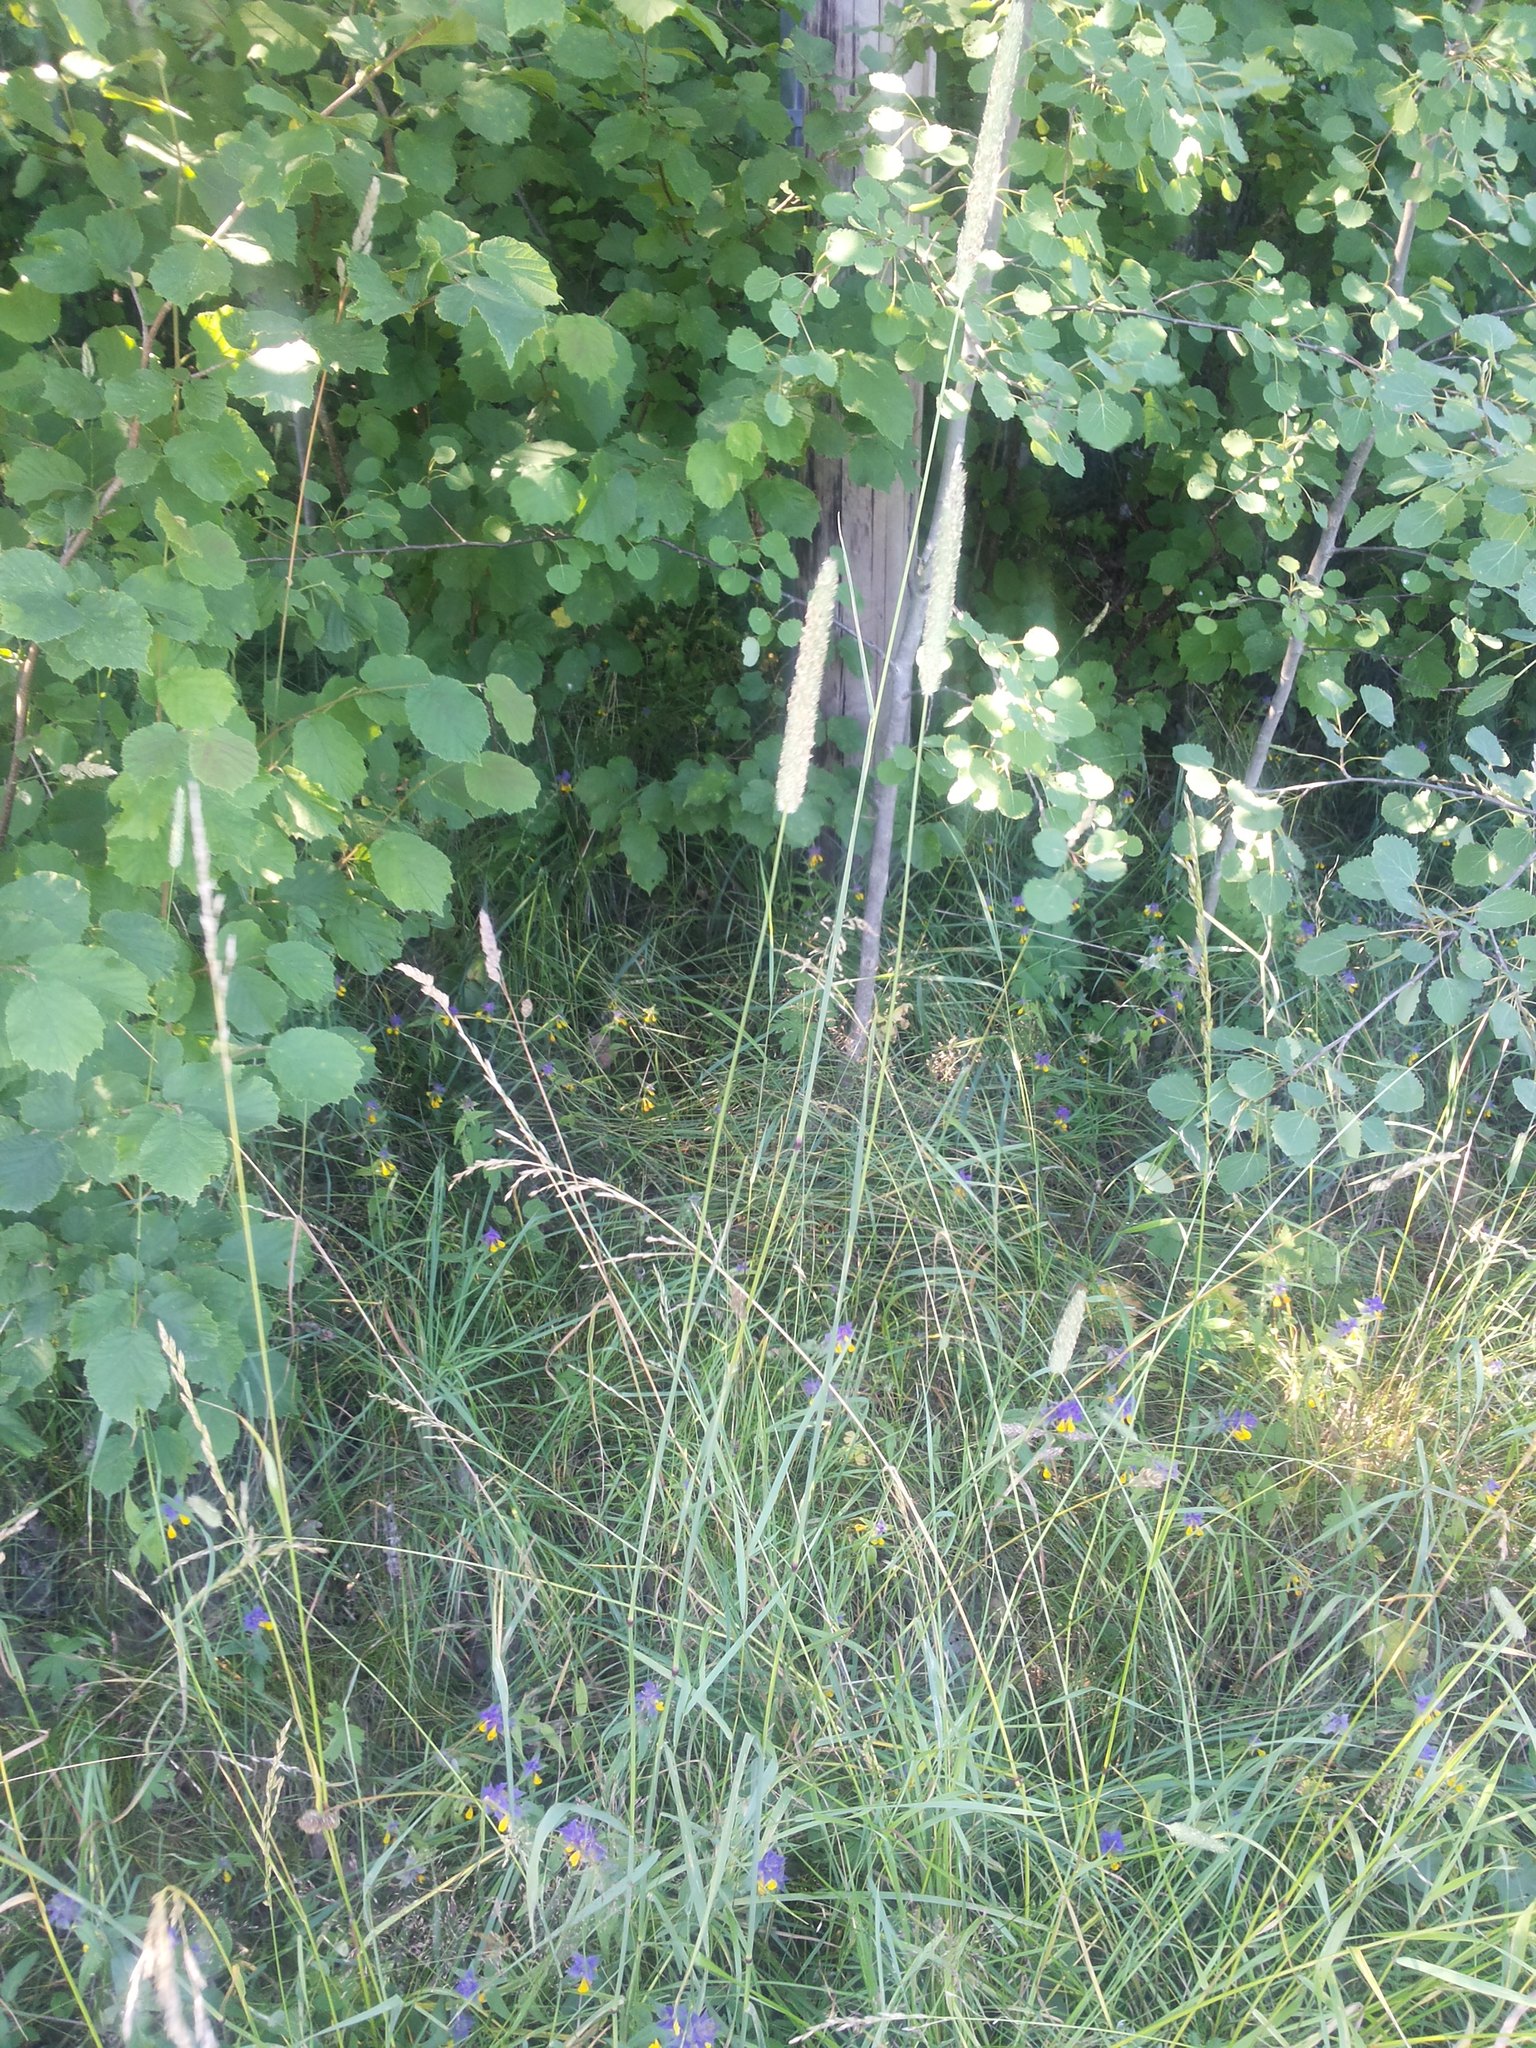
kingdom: Plantae
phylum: Tracheophyta
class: Liliopsida
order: Poales
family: Poaceae
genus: Phleum
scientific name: Phleum pratense
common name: Timothy grass
